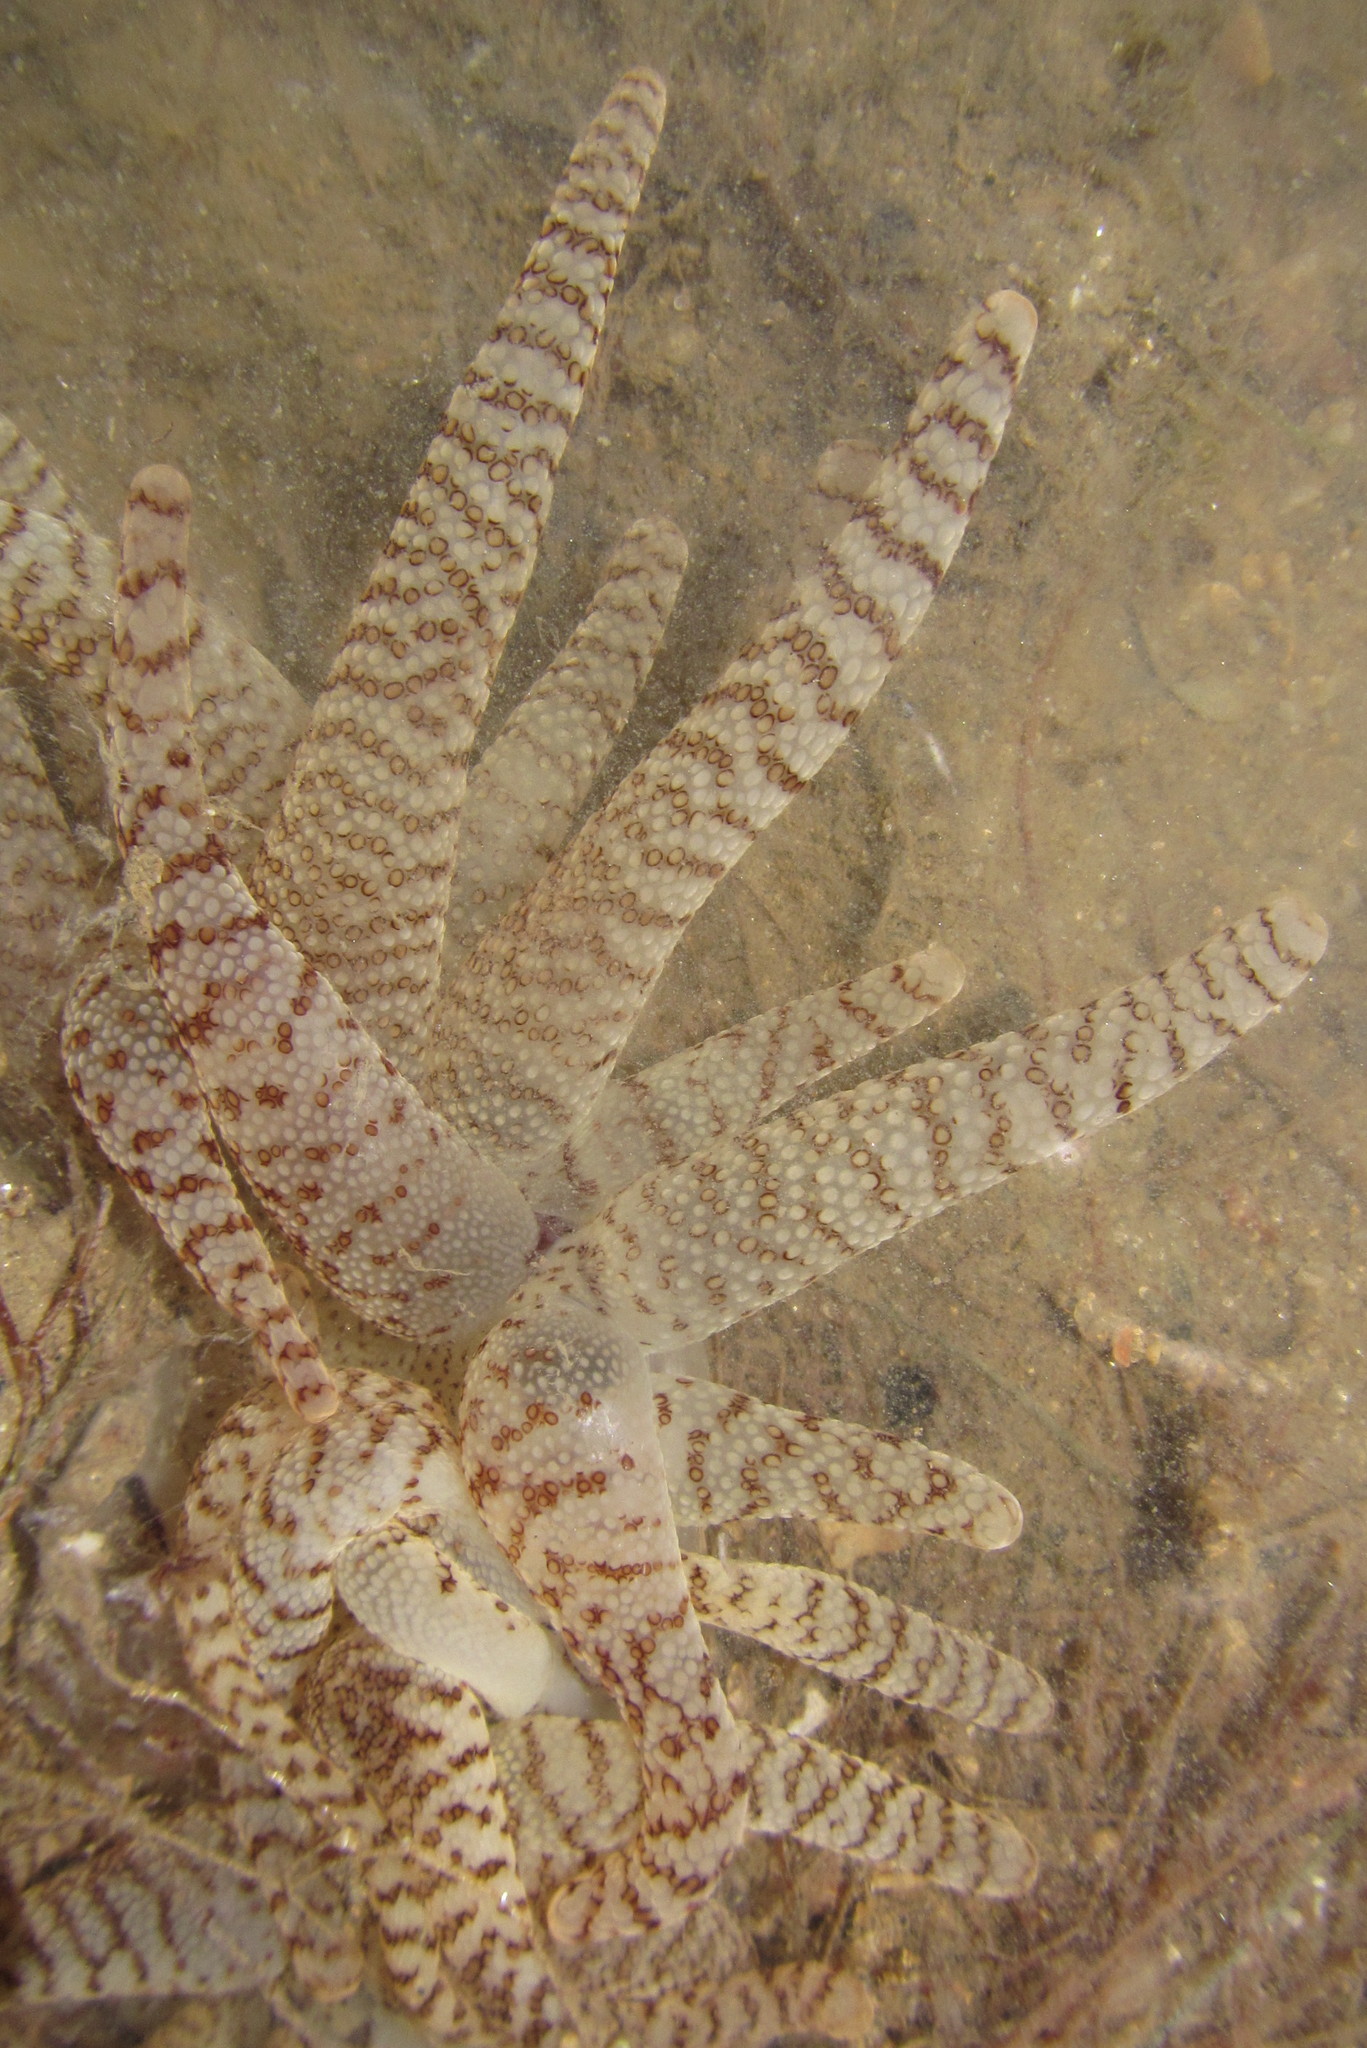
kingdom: Animalia
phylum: Cnidaria
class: Anthozoa
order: Actiniaria
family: Actiniidae
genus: Dofleinia
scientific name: Dofleinia armata
